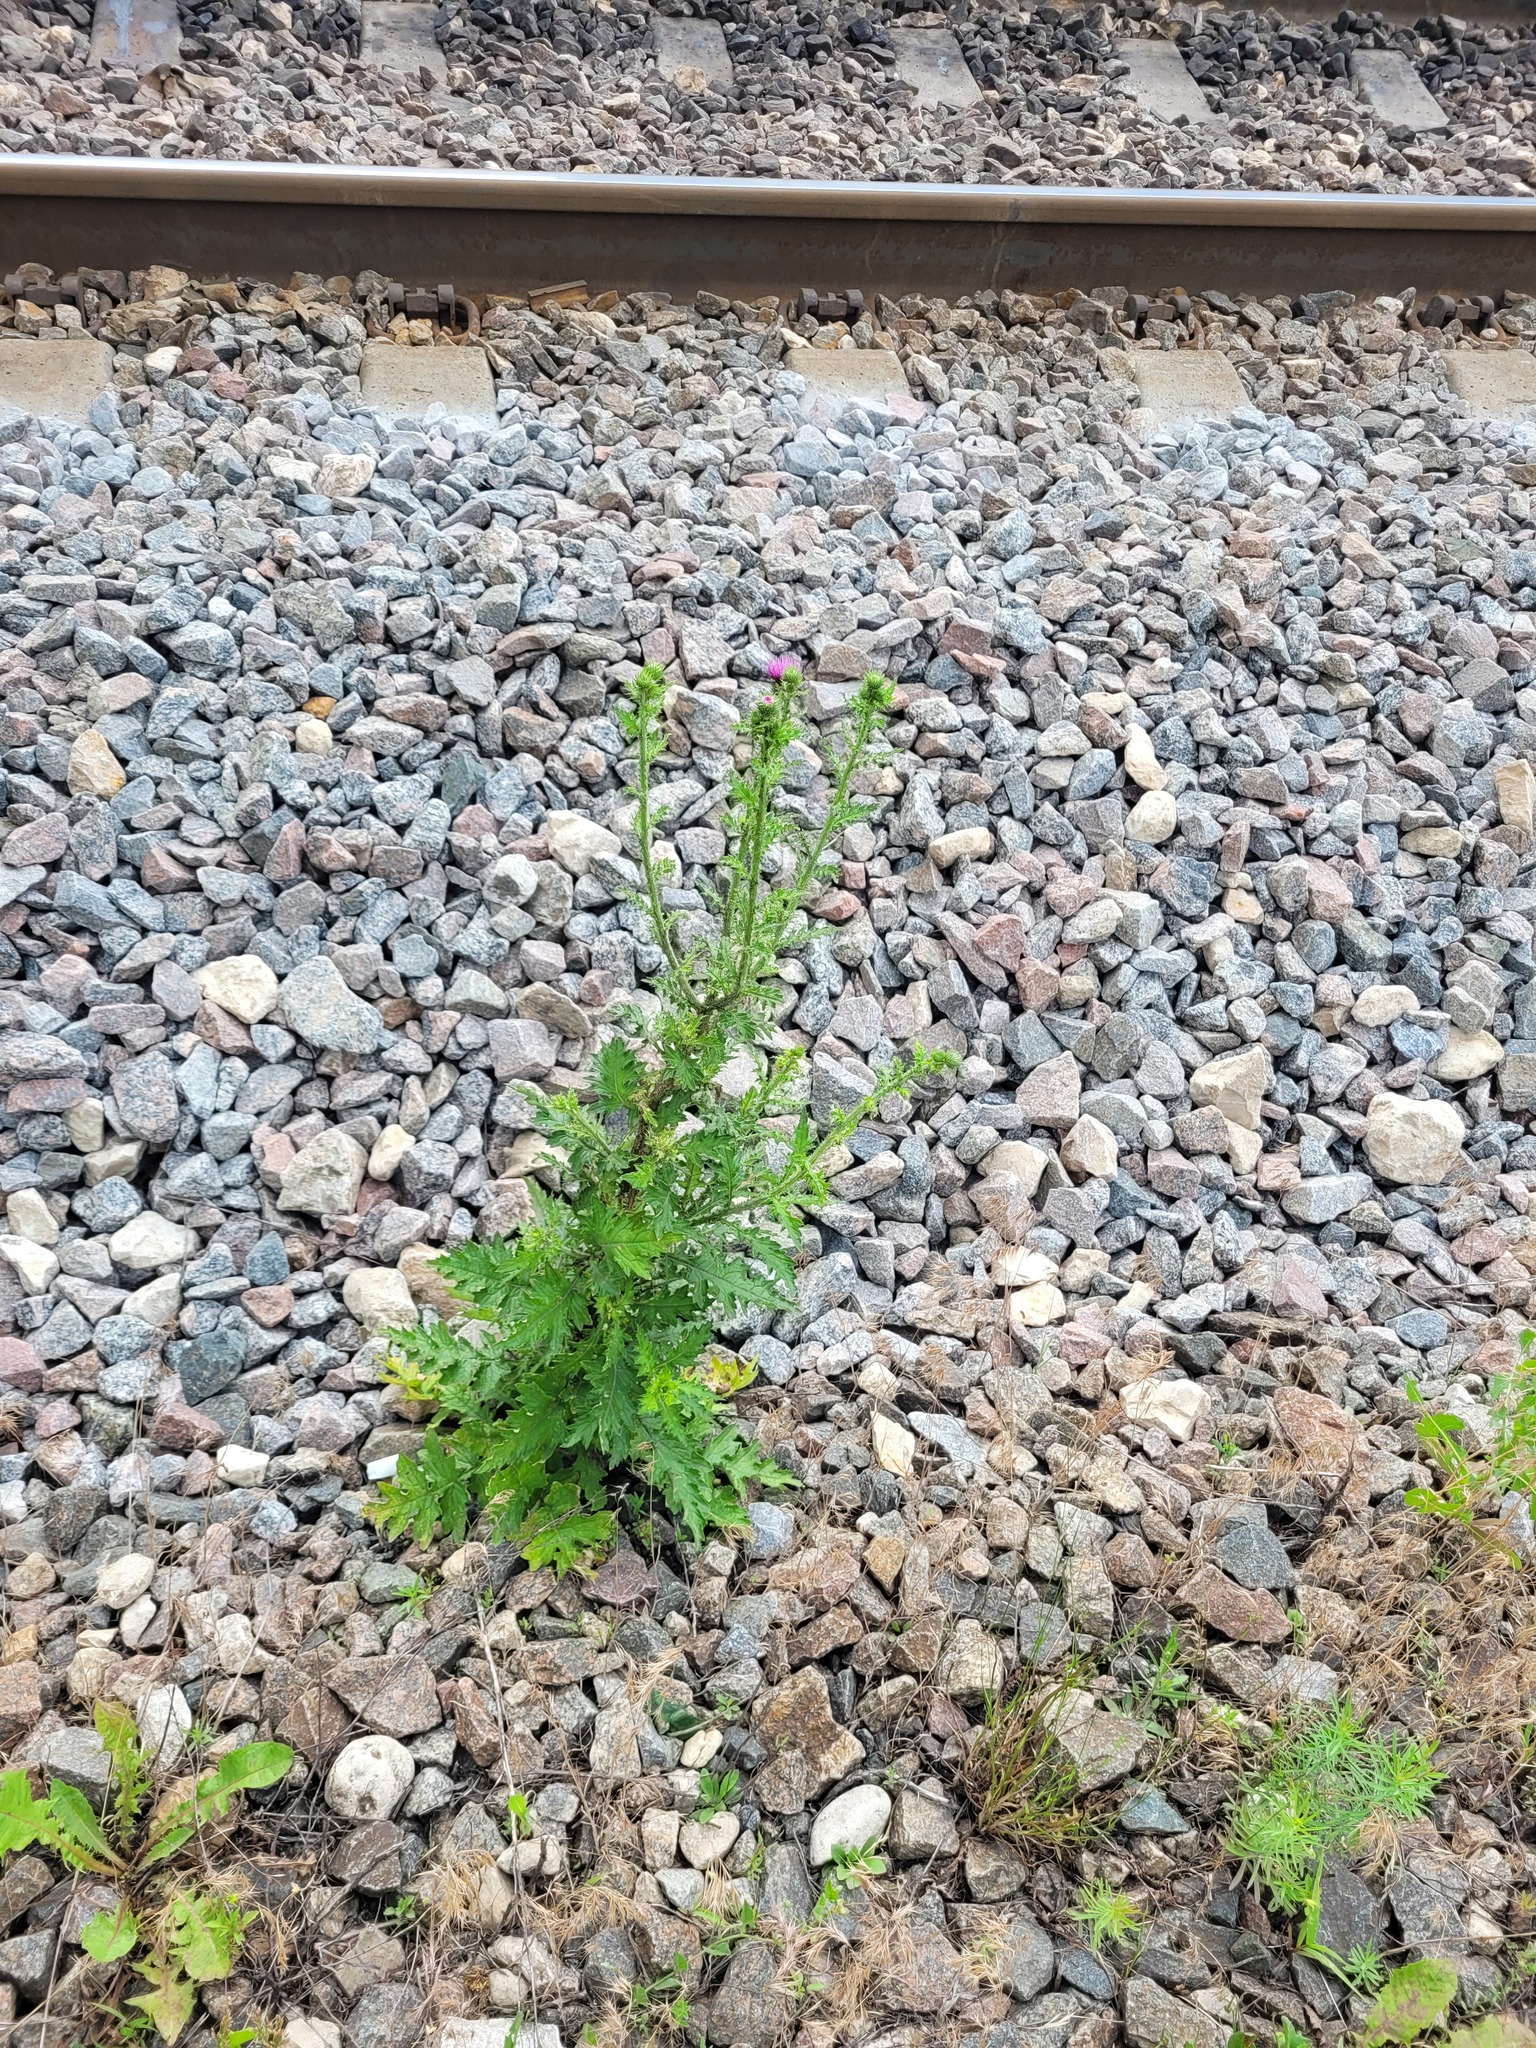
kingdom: Plantae
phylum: Tracheophyta
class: Magnoliopsida
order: Asterales
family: Asteraceae
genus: Carduus
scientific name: Carduus crispus
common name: Welted thistle
